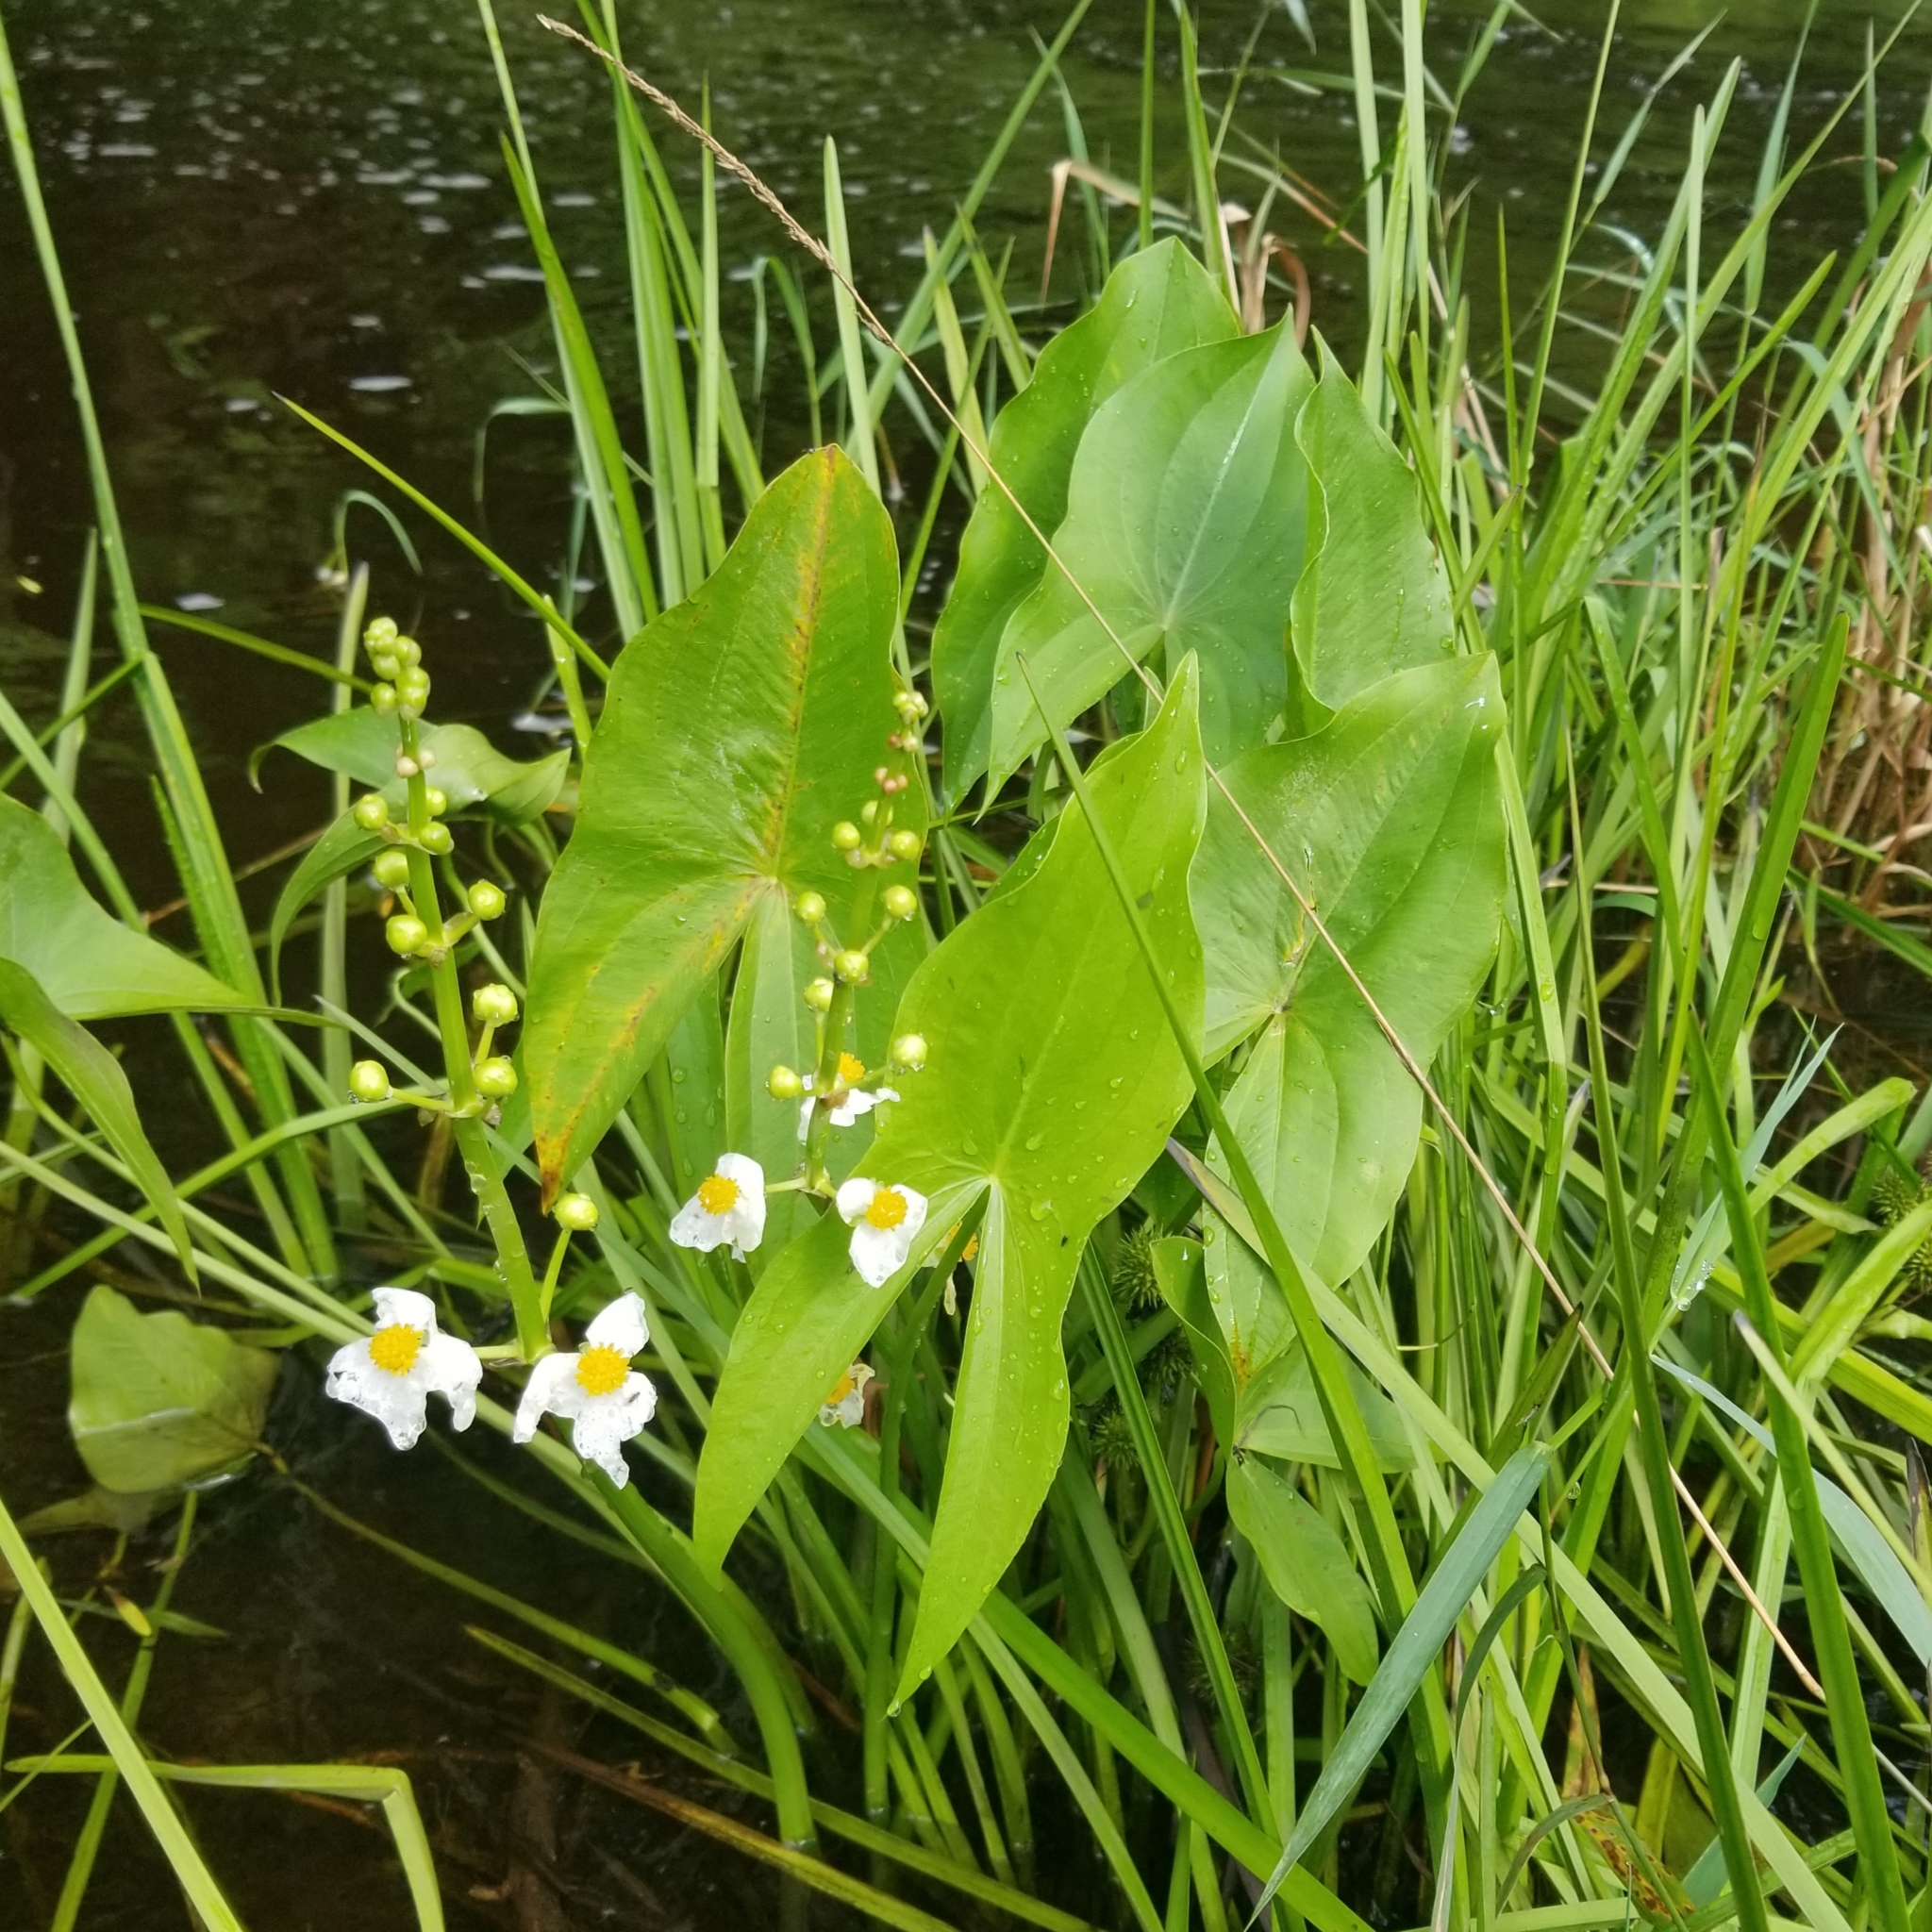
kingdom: Plantae
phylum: Tracheophyta
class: Liliopsida
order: Alismatales
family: Alismataceae
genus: Sagittaria
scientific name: Sagittaria latifolia
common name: Duck-potato
